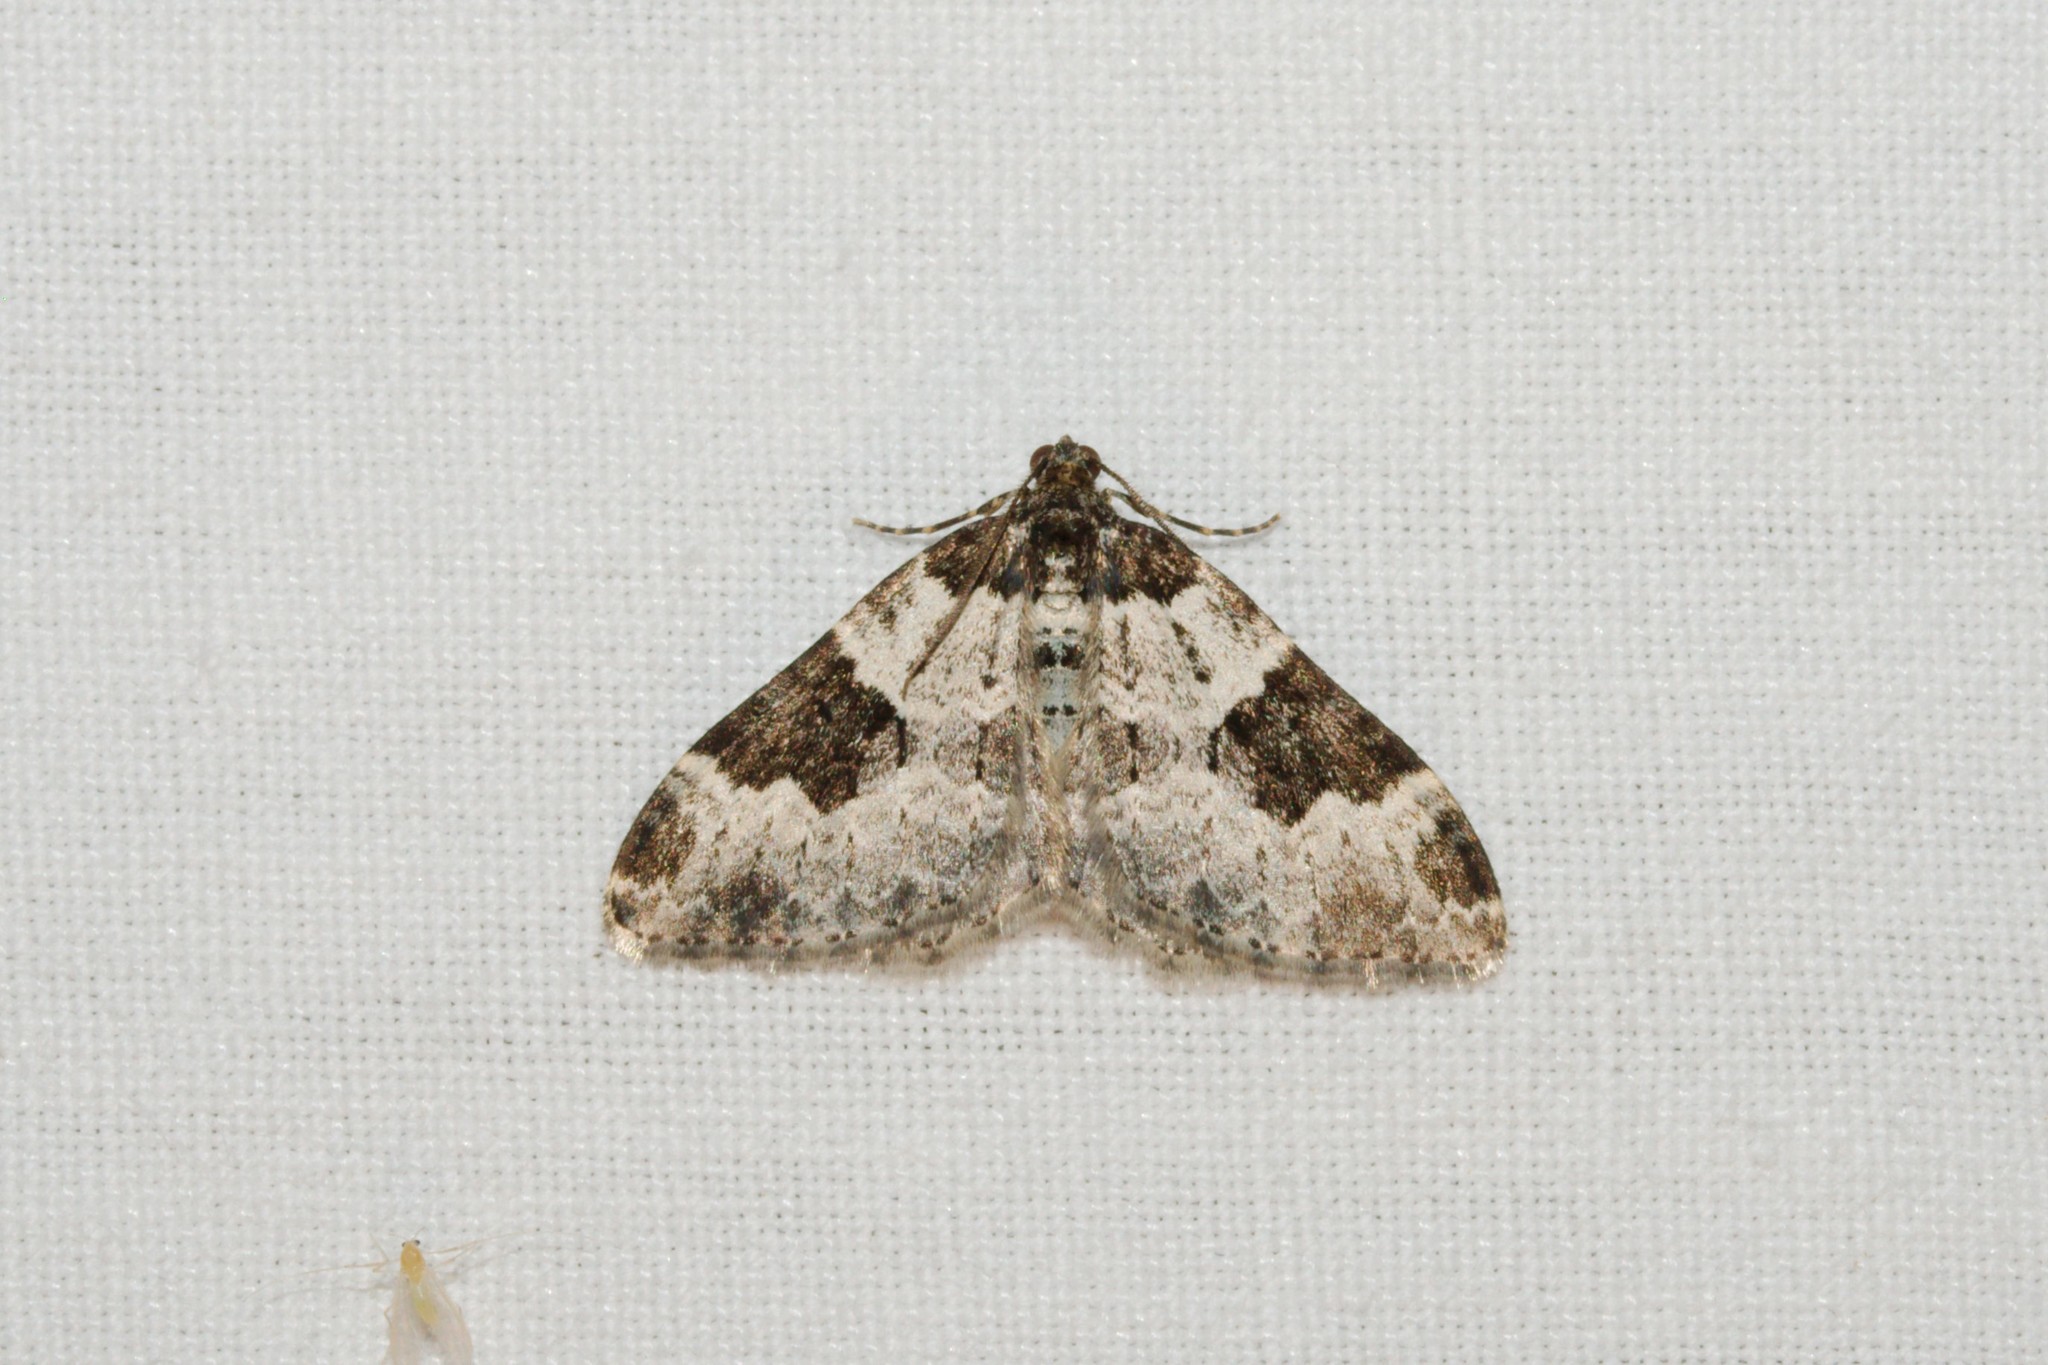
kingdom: Animalia
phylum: Arthropoda
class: Insecta
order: Lepidoptera
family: Geometridae
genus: Xanthorhoe
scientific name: Xanthorhoe fluctuata
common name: Garden carpet
